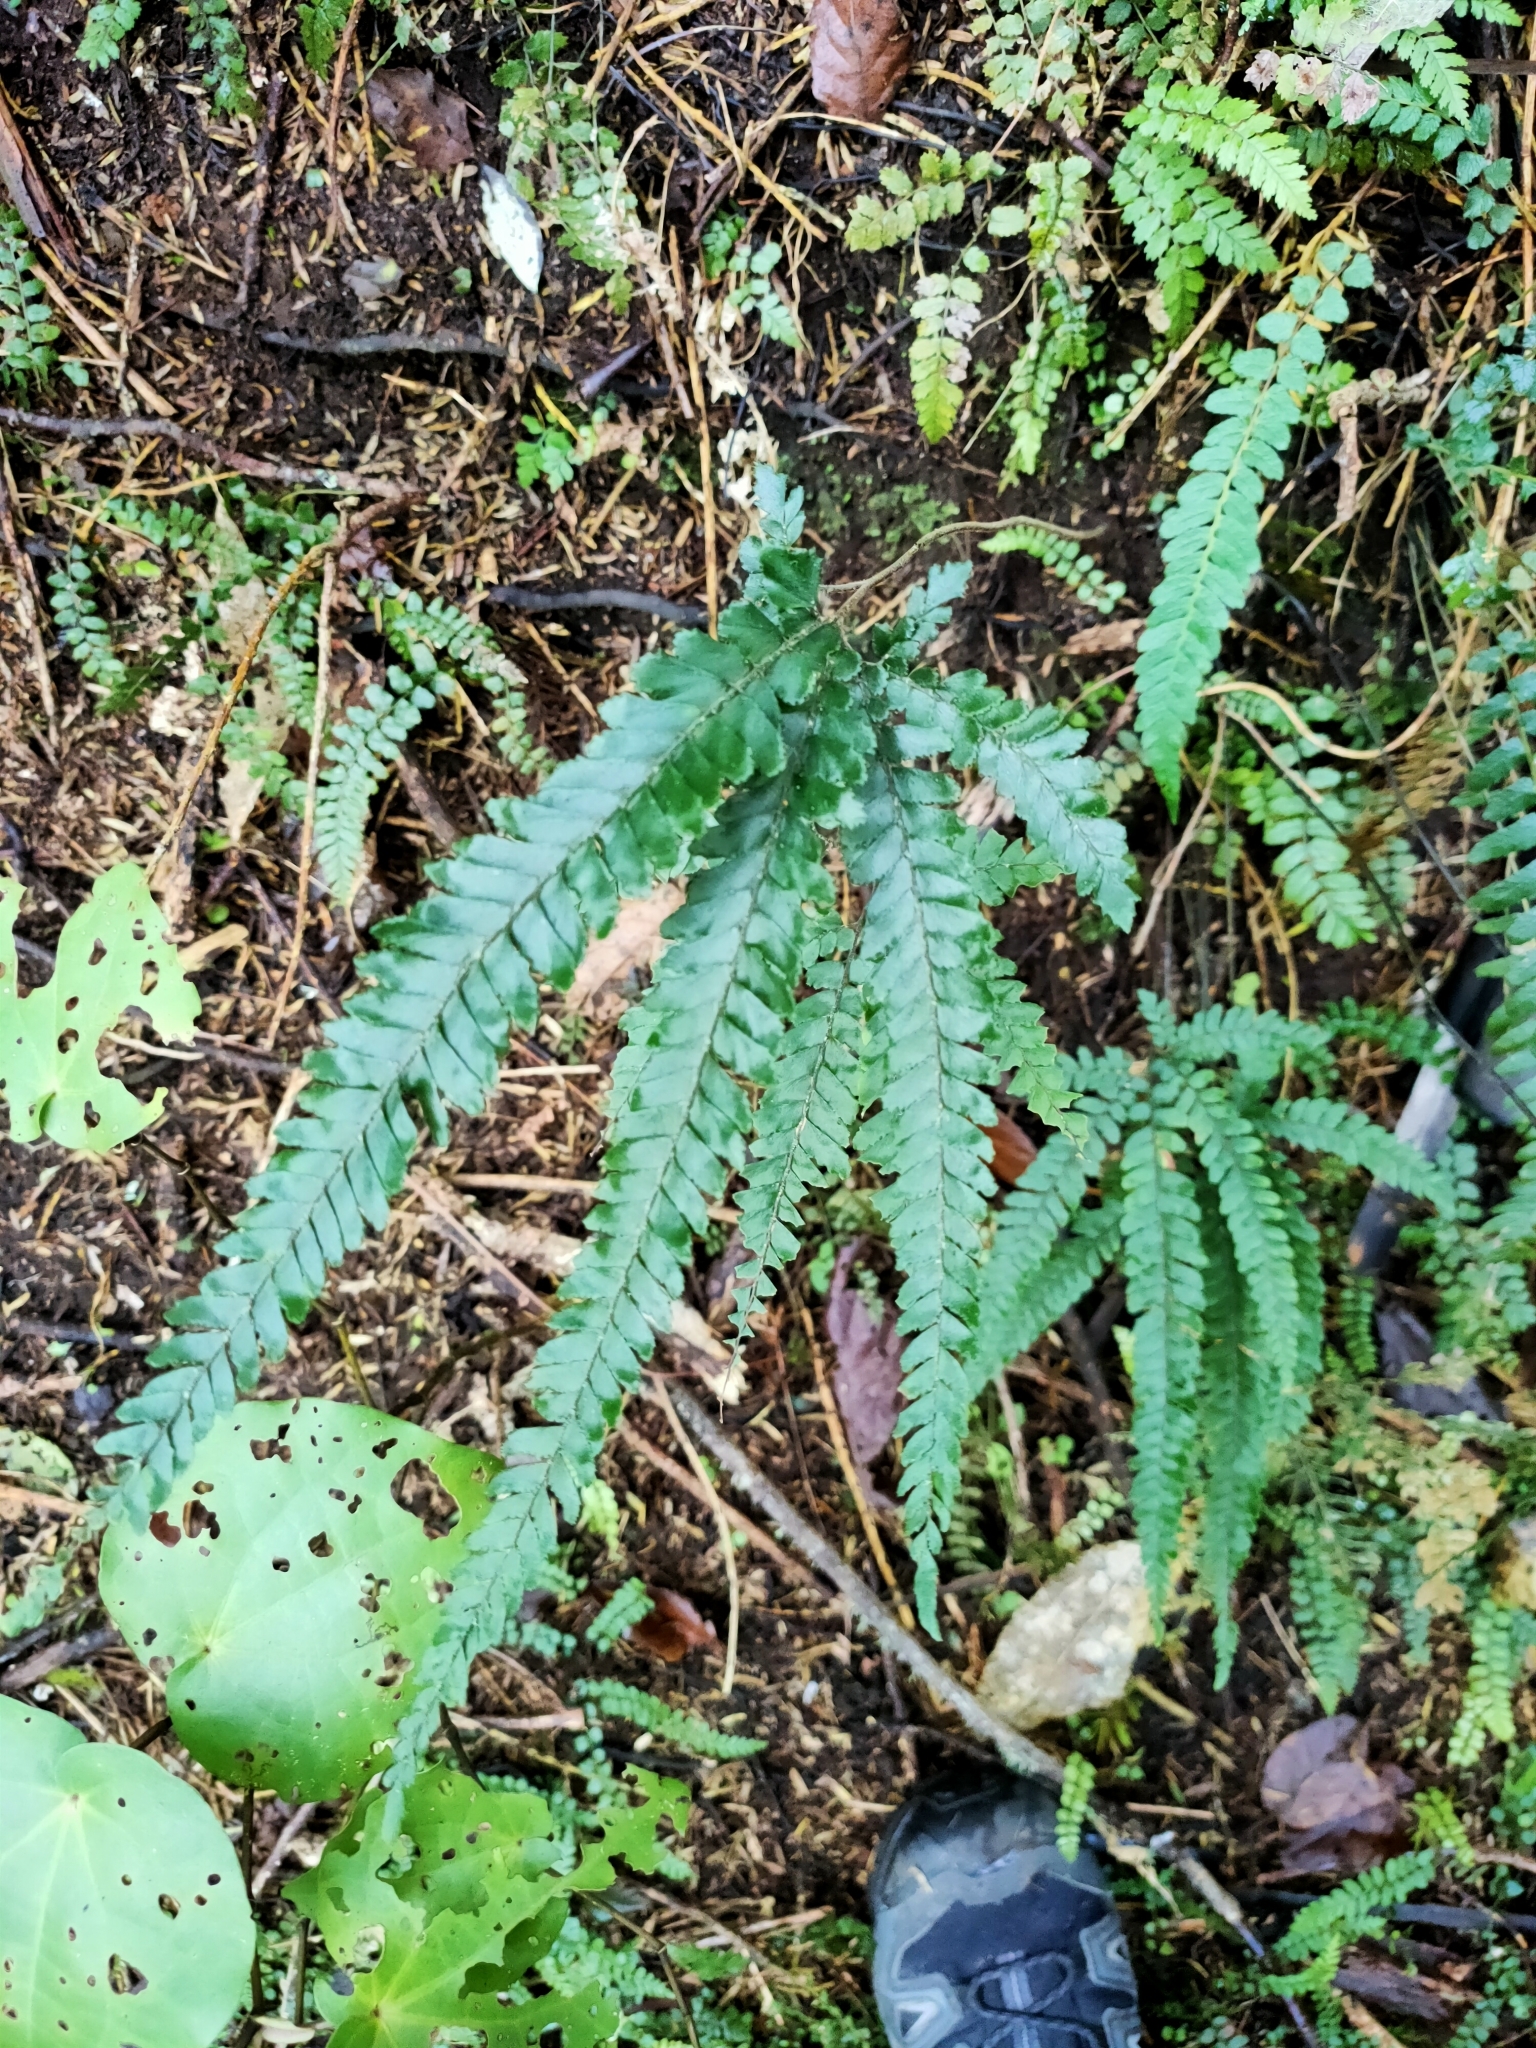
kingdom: Plantae
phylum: Tracheophyta
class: Polypodiopsida
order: Polypodiales
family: Pteridaceae
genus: Adiantum
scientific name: Adiantum hispidulum
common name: Rough maidenhair
